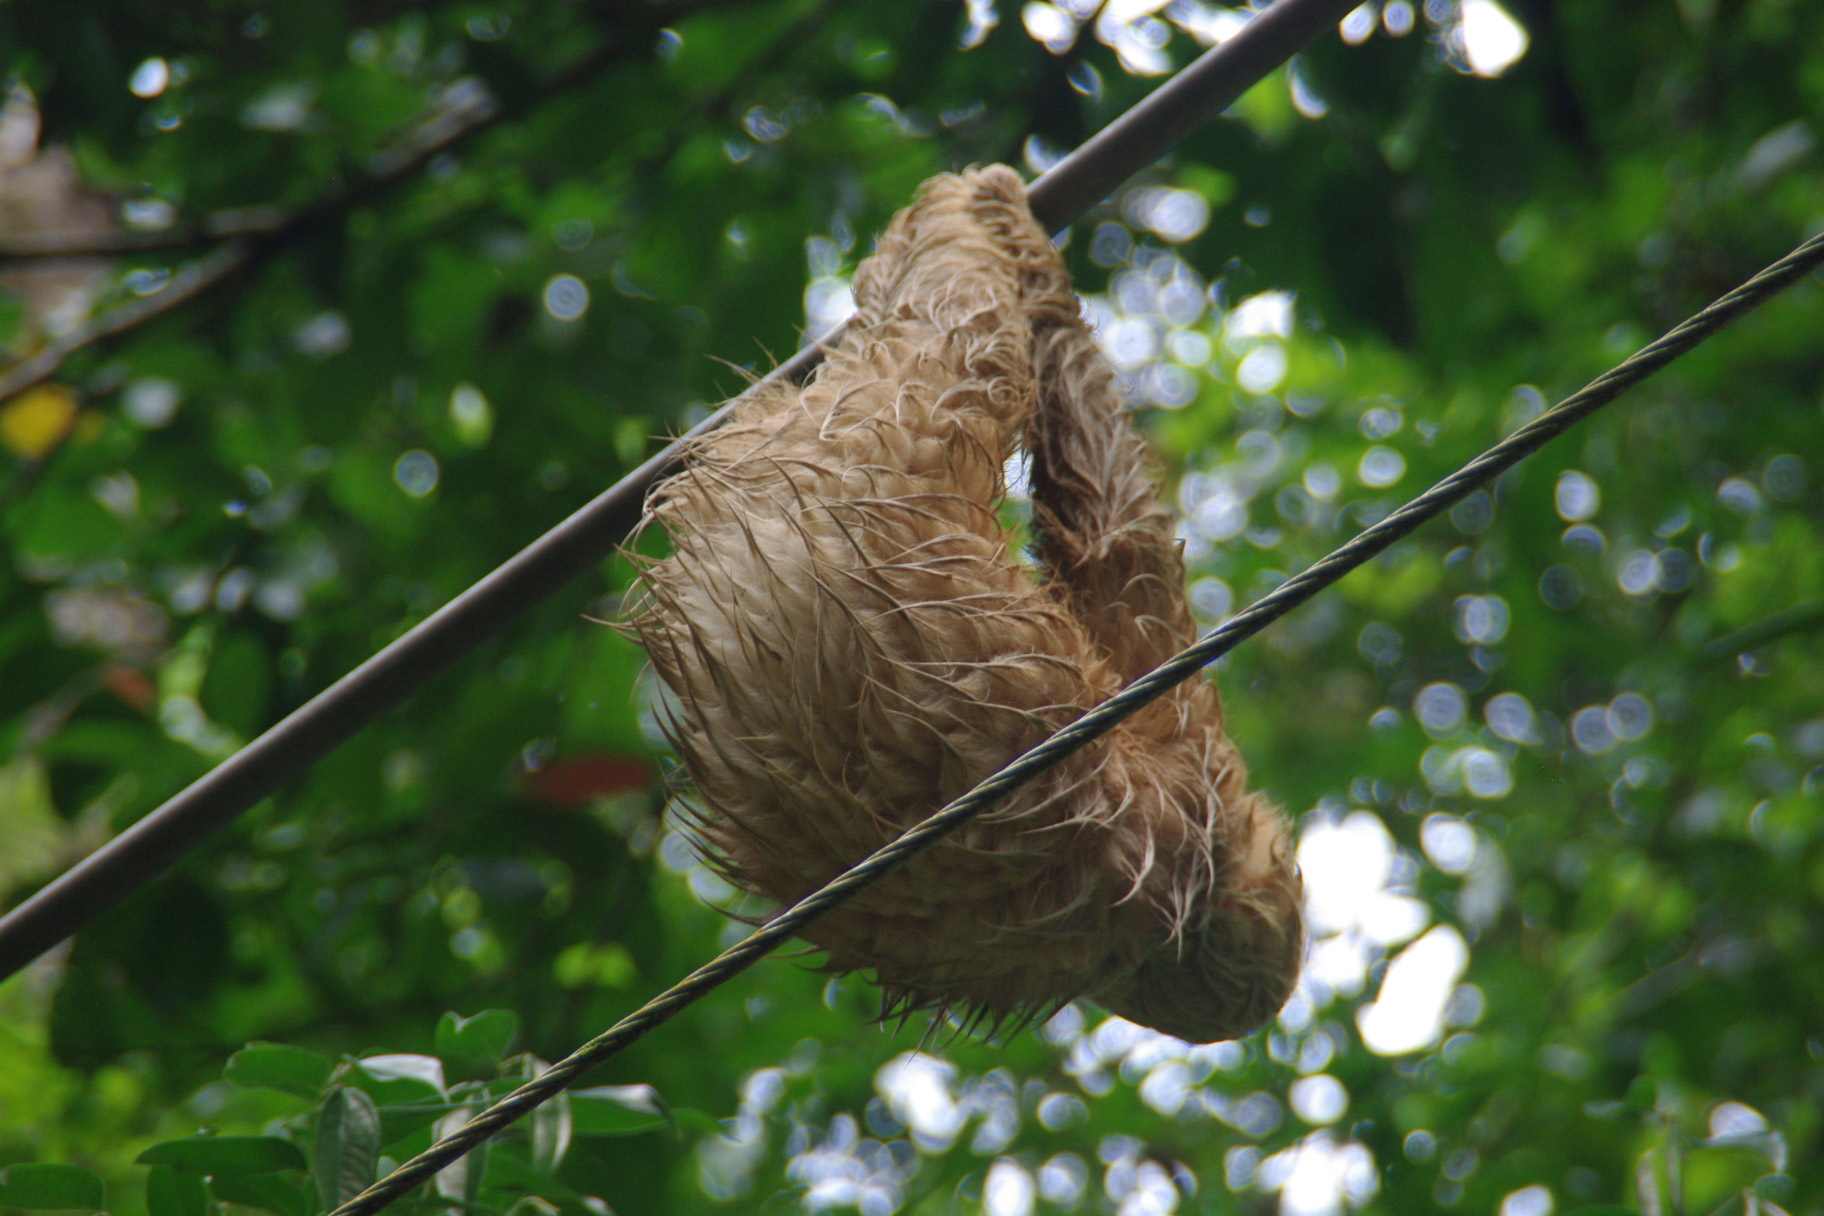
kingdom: Animalia
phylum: Chordata
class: Mammalia
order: Pilosa
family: Megalonychidae
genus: Choloepus
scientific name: Choloepus hoffmanni
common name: Hoffmann's two-toed sloth
